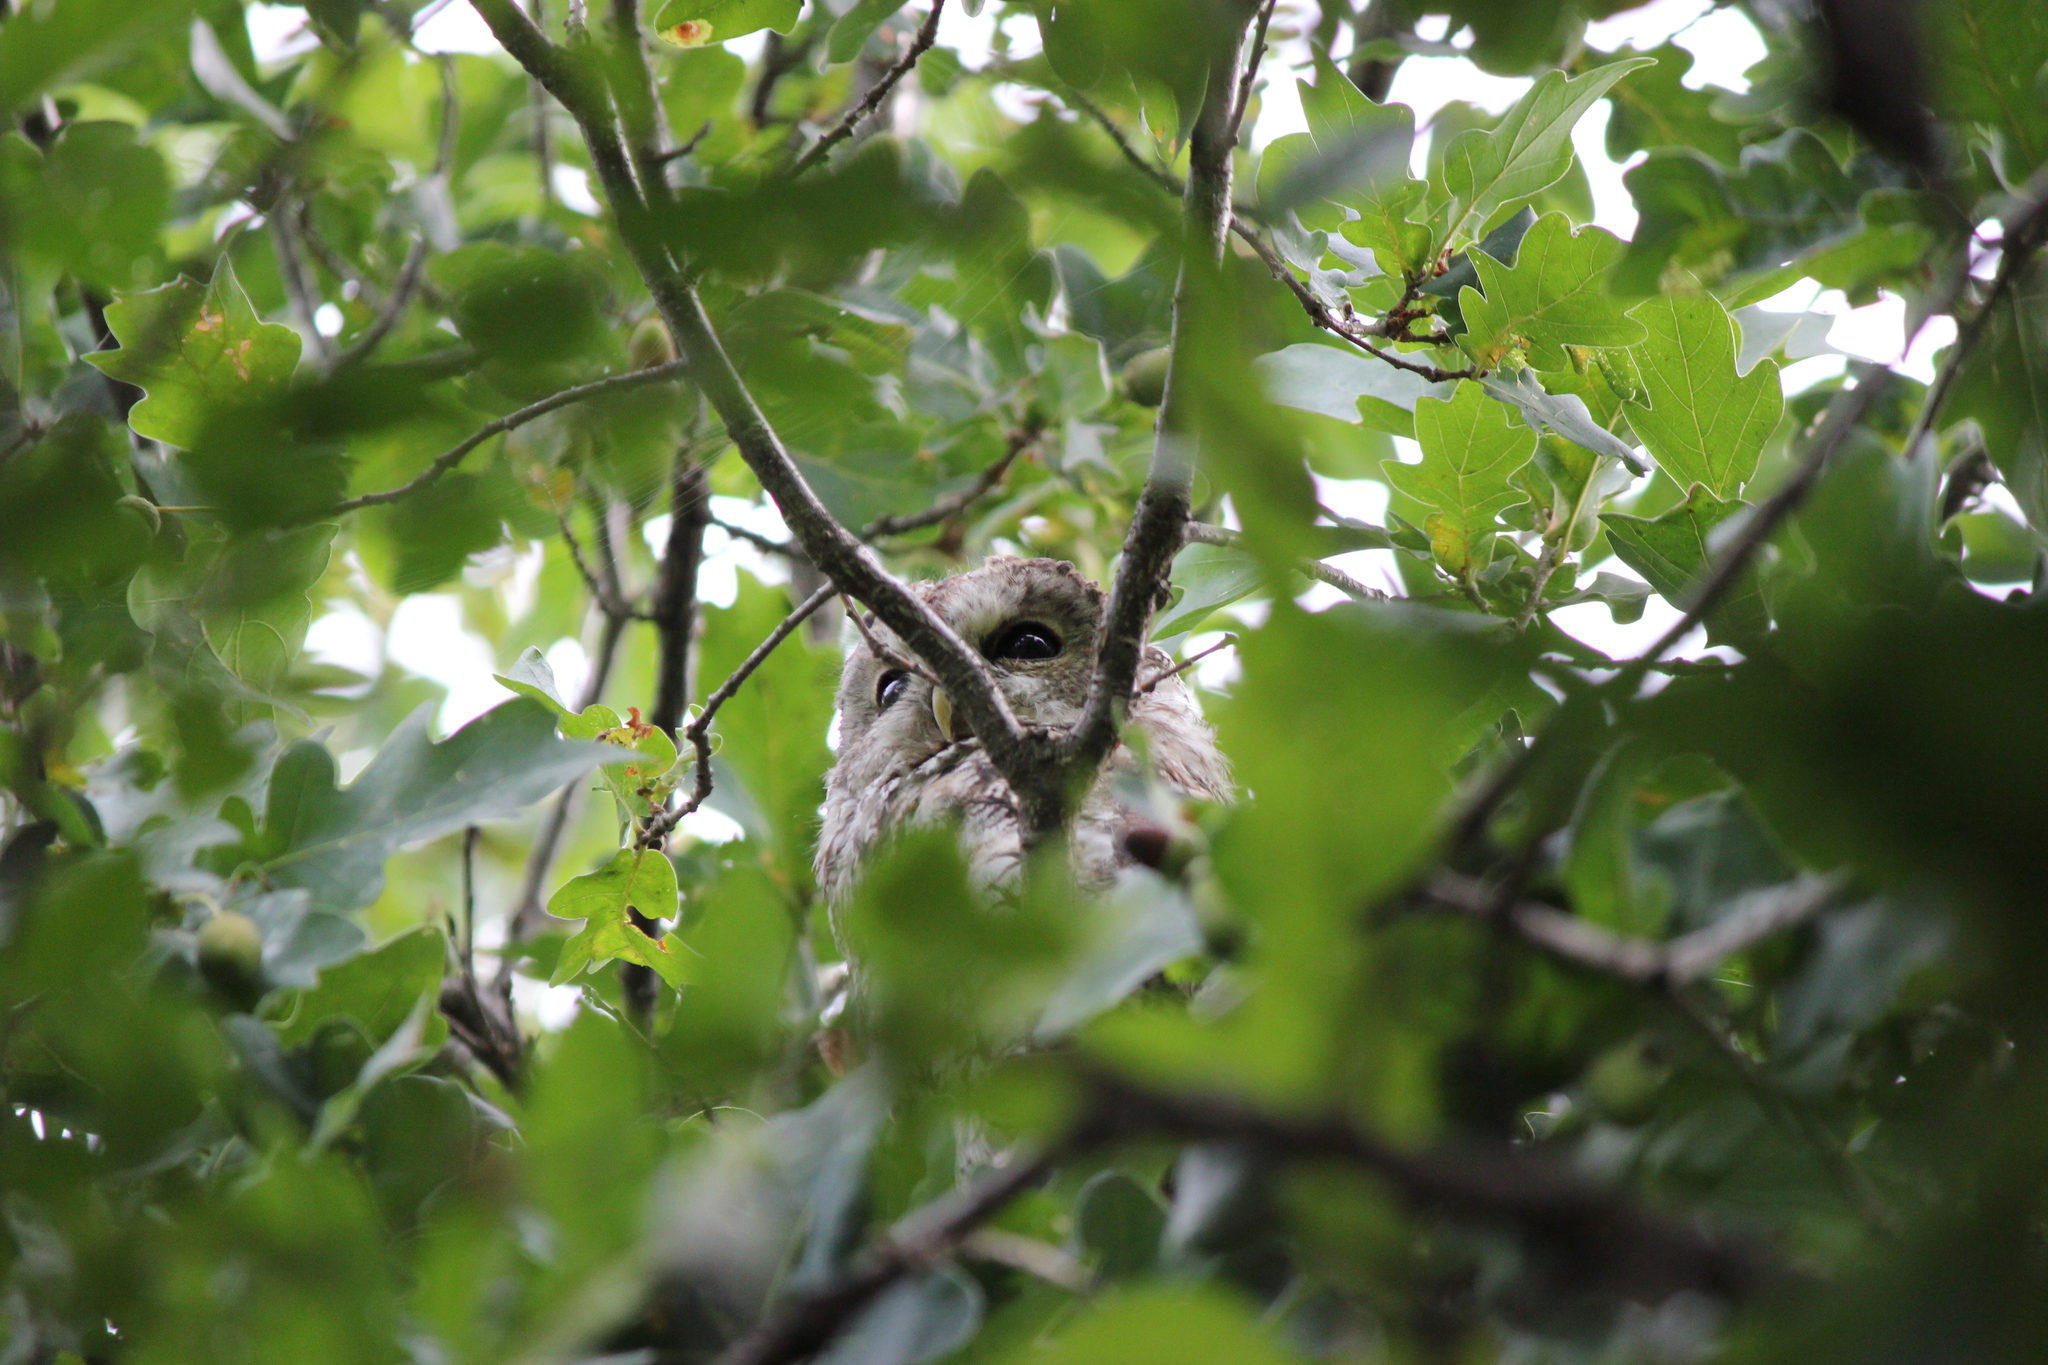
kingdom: Animalia
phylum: Chordata
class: Aves
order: Strigiformes
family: Strigidae
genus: Strix
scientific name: Strix aluco
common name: Tawny owl
